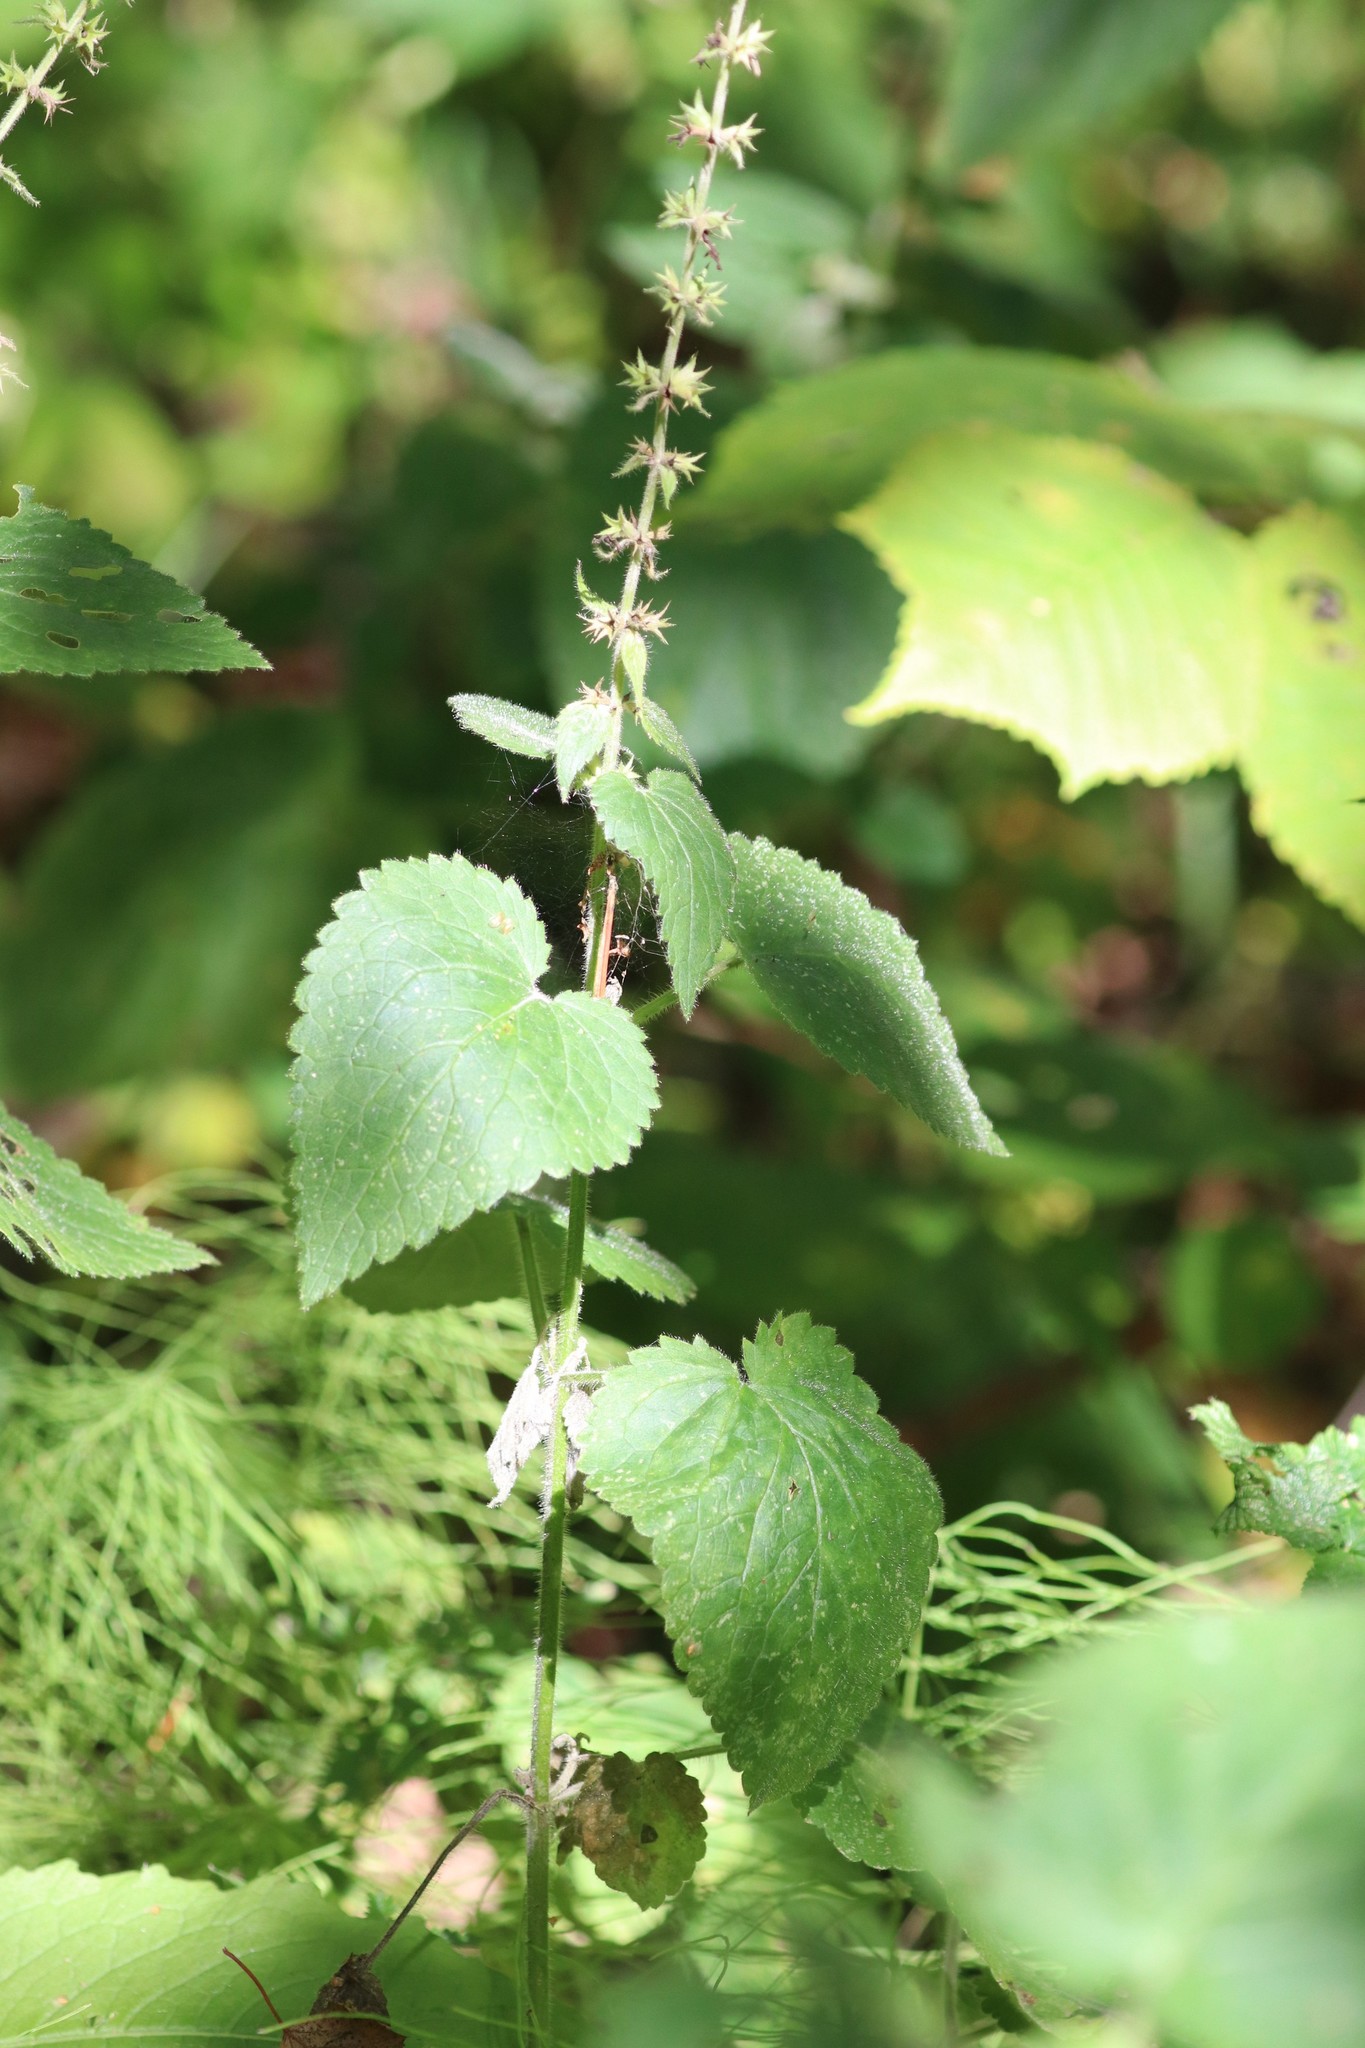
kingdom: Plantae
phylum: Tracheophyta
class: Magnoliopsida
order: Lamiales
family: Lamiaceae
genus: Stachys
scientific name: Stachys sylvatica
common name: Hedge woundwort
